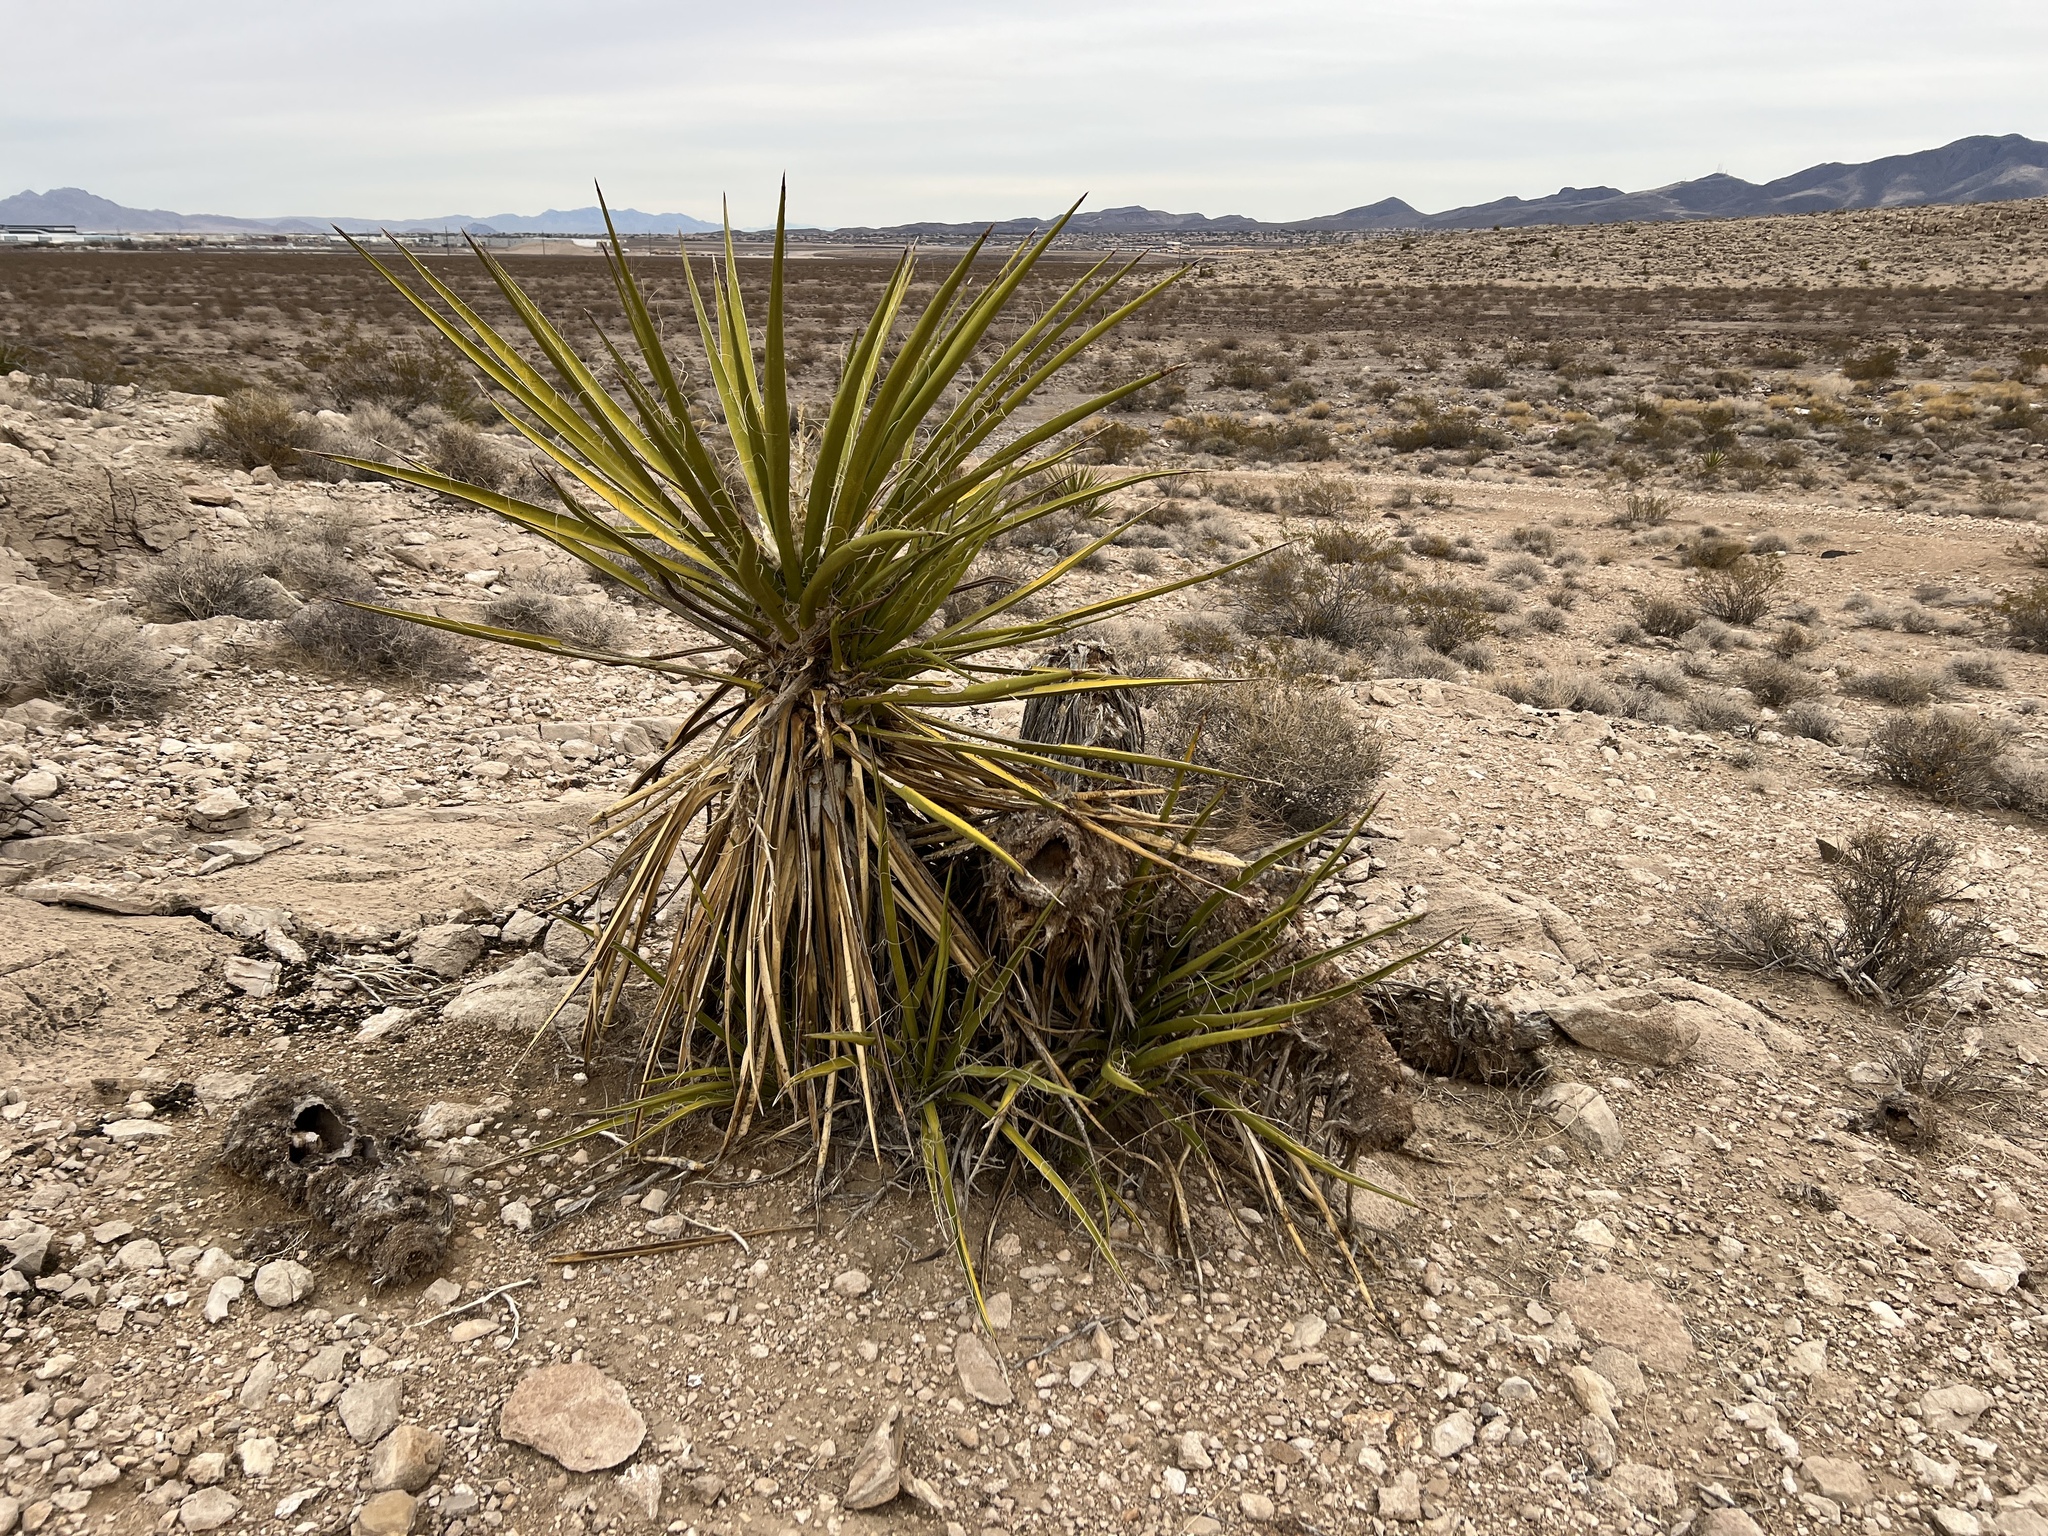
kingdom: Plantae
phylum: Tracheophyta
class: Liliopsida
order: Asparagales
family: Asparagaceae
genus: Yucca
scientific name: Yucca schidigera
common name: Mojave yucca
